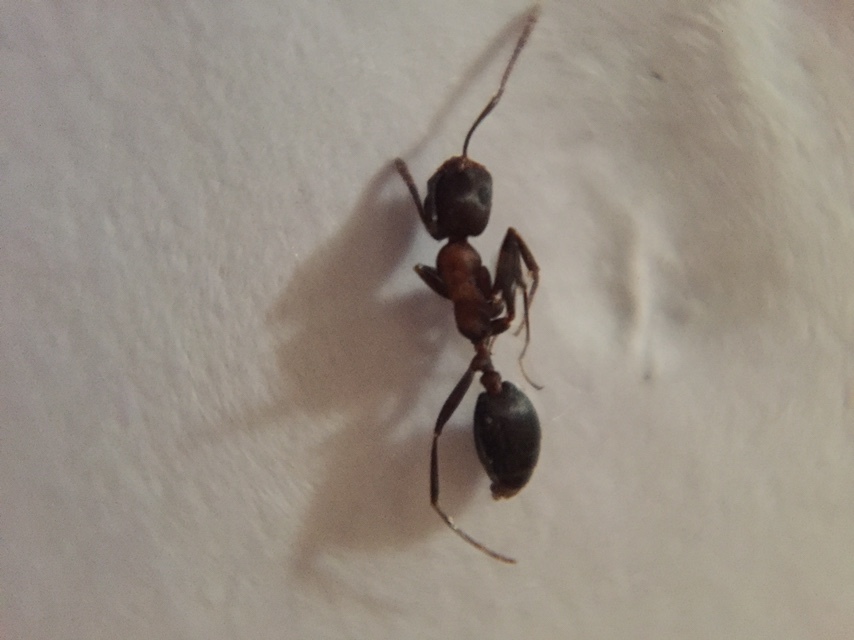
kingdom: Animalia
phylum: Arthropoda
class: Insecta
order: Hymenoptera
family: Formicidae
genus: Monomorium
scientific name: Monomorium indicum
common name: Ant
